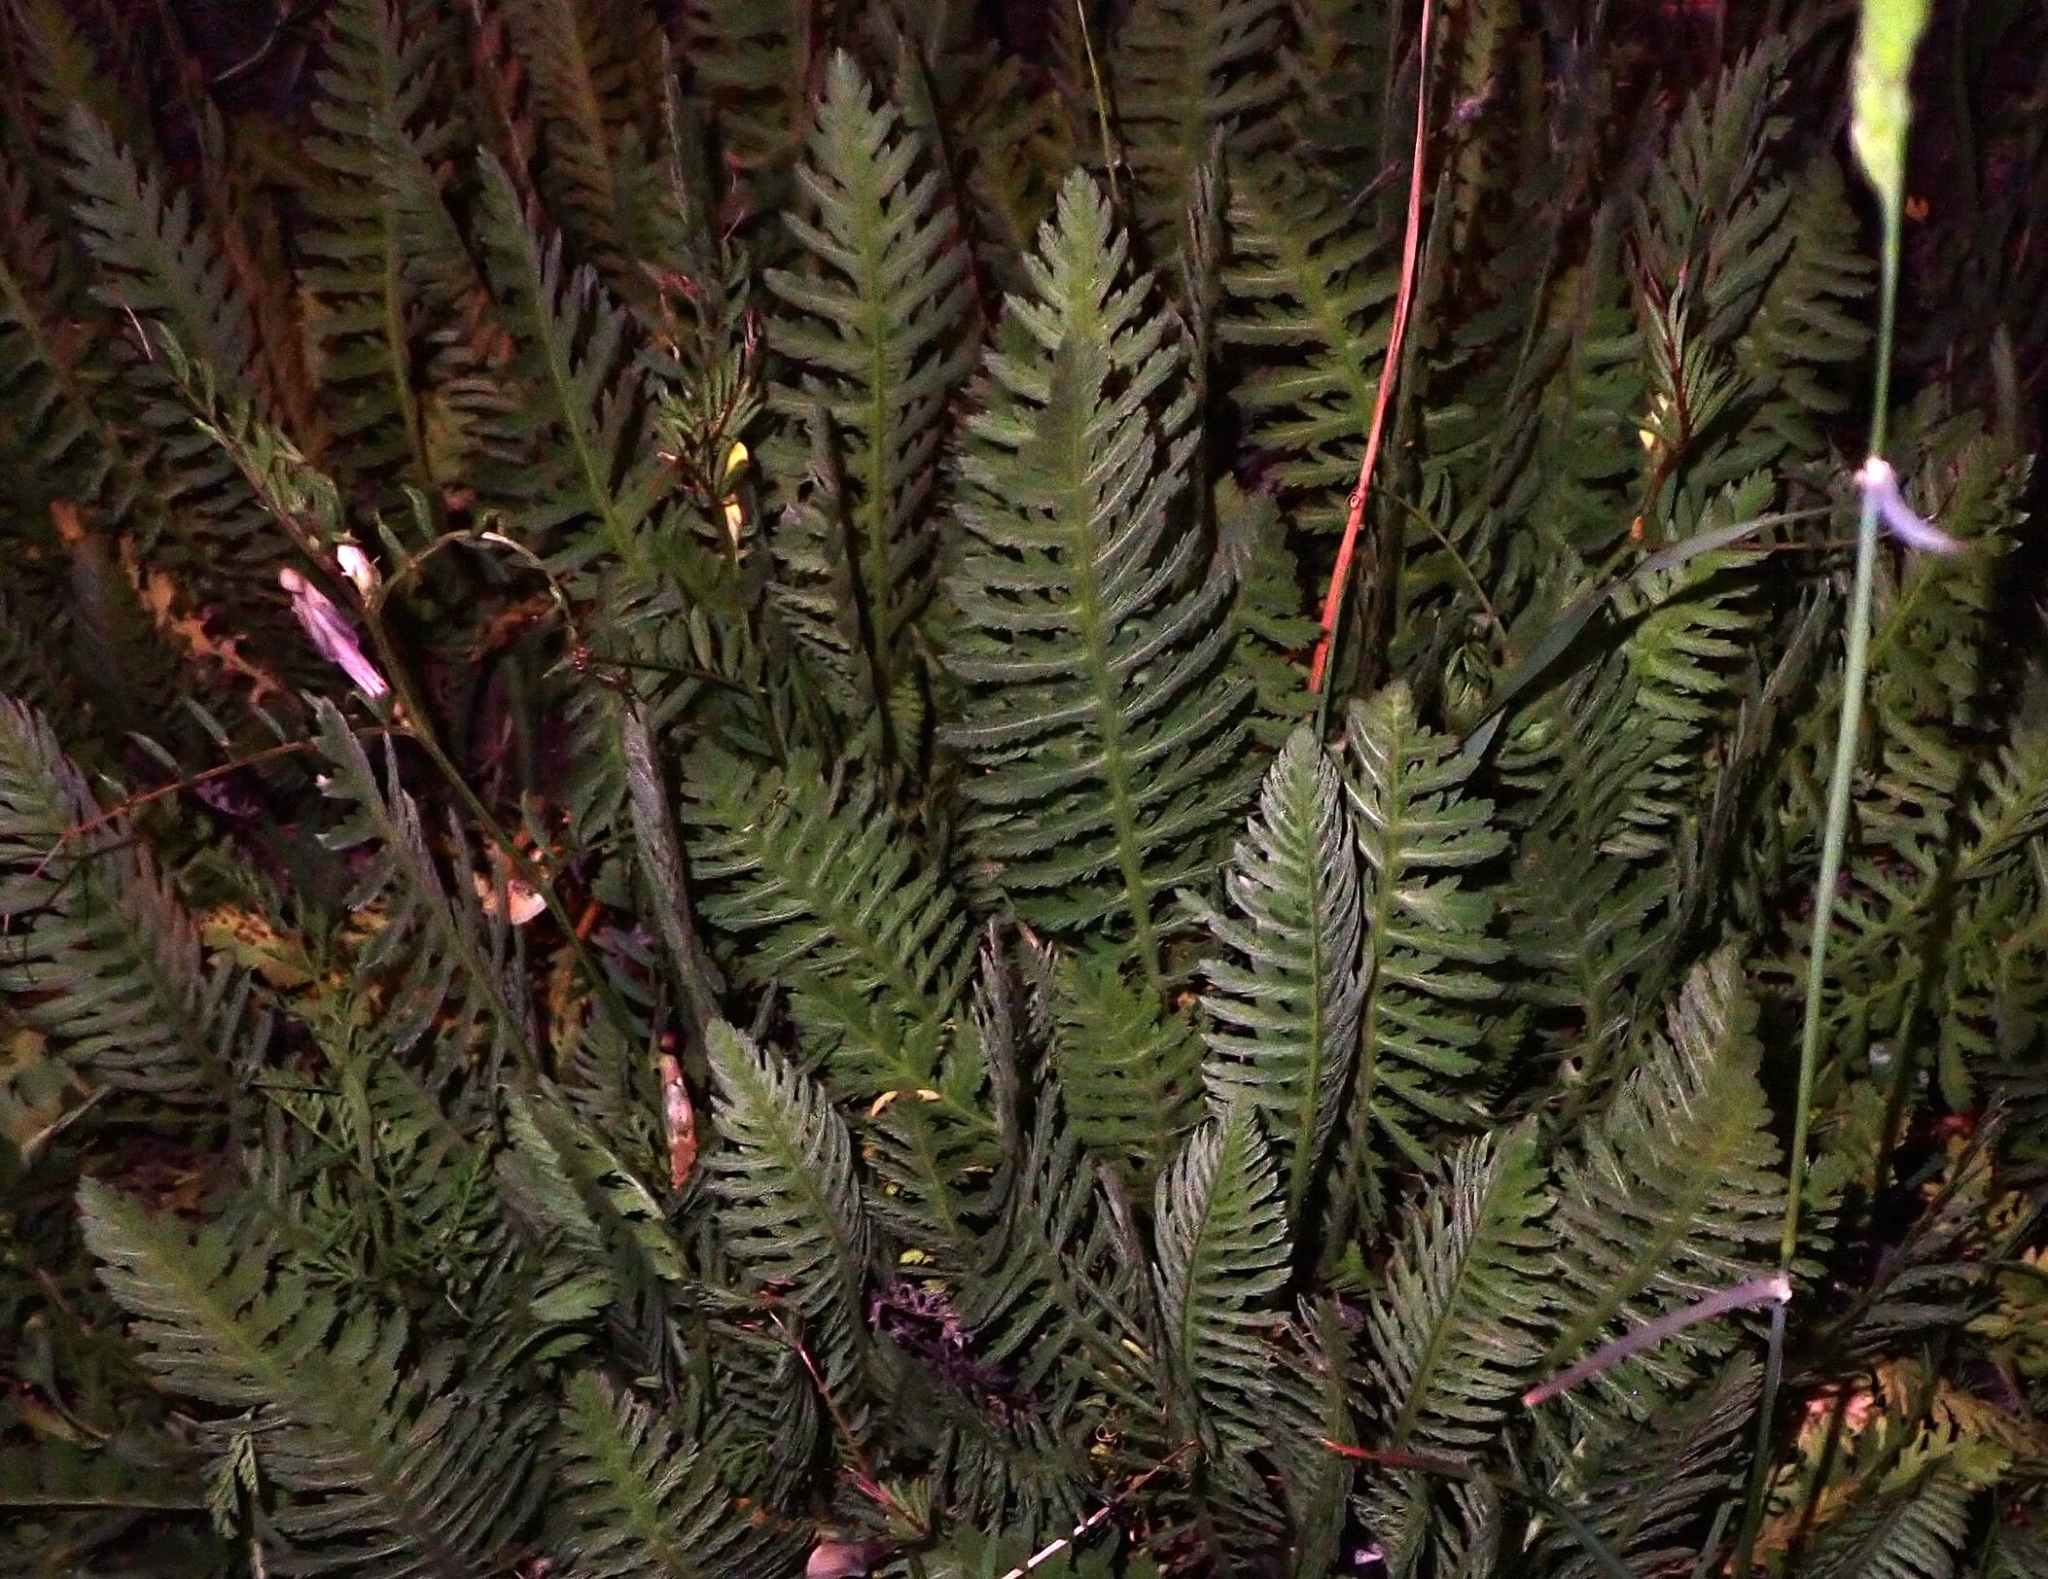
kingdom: Plantae
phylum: Tracheophyta
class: Magnoliopsida
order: Asterales
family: Asteraceae
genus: Achillea
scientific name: Achillea filipendulina
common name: Fernleaf yarrow
